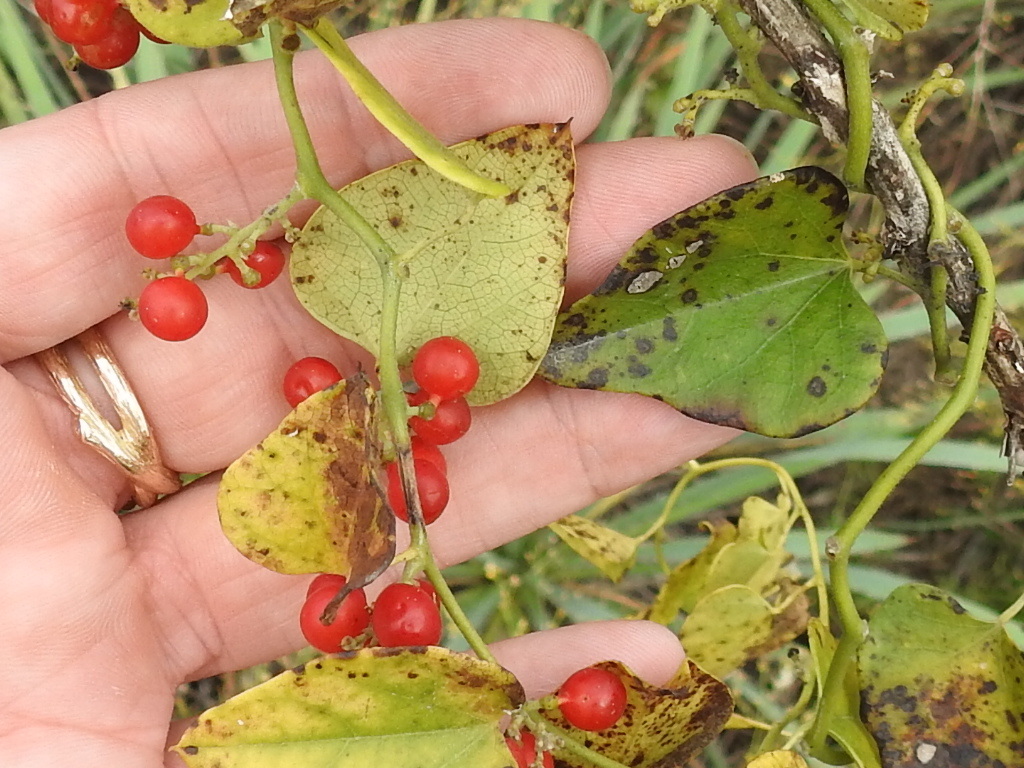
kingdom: Plantae
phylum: Tracheophyta
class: Magnoliopsida
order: Ranunculales
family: Menispermaceae
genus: Cocculus
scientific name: Cocculus carolinus
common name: Carolina moonseed
